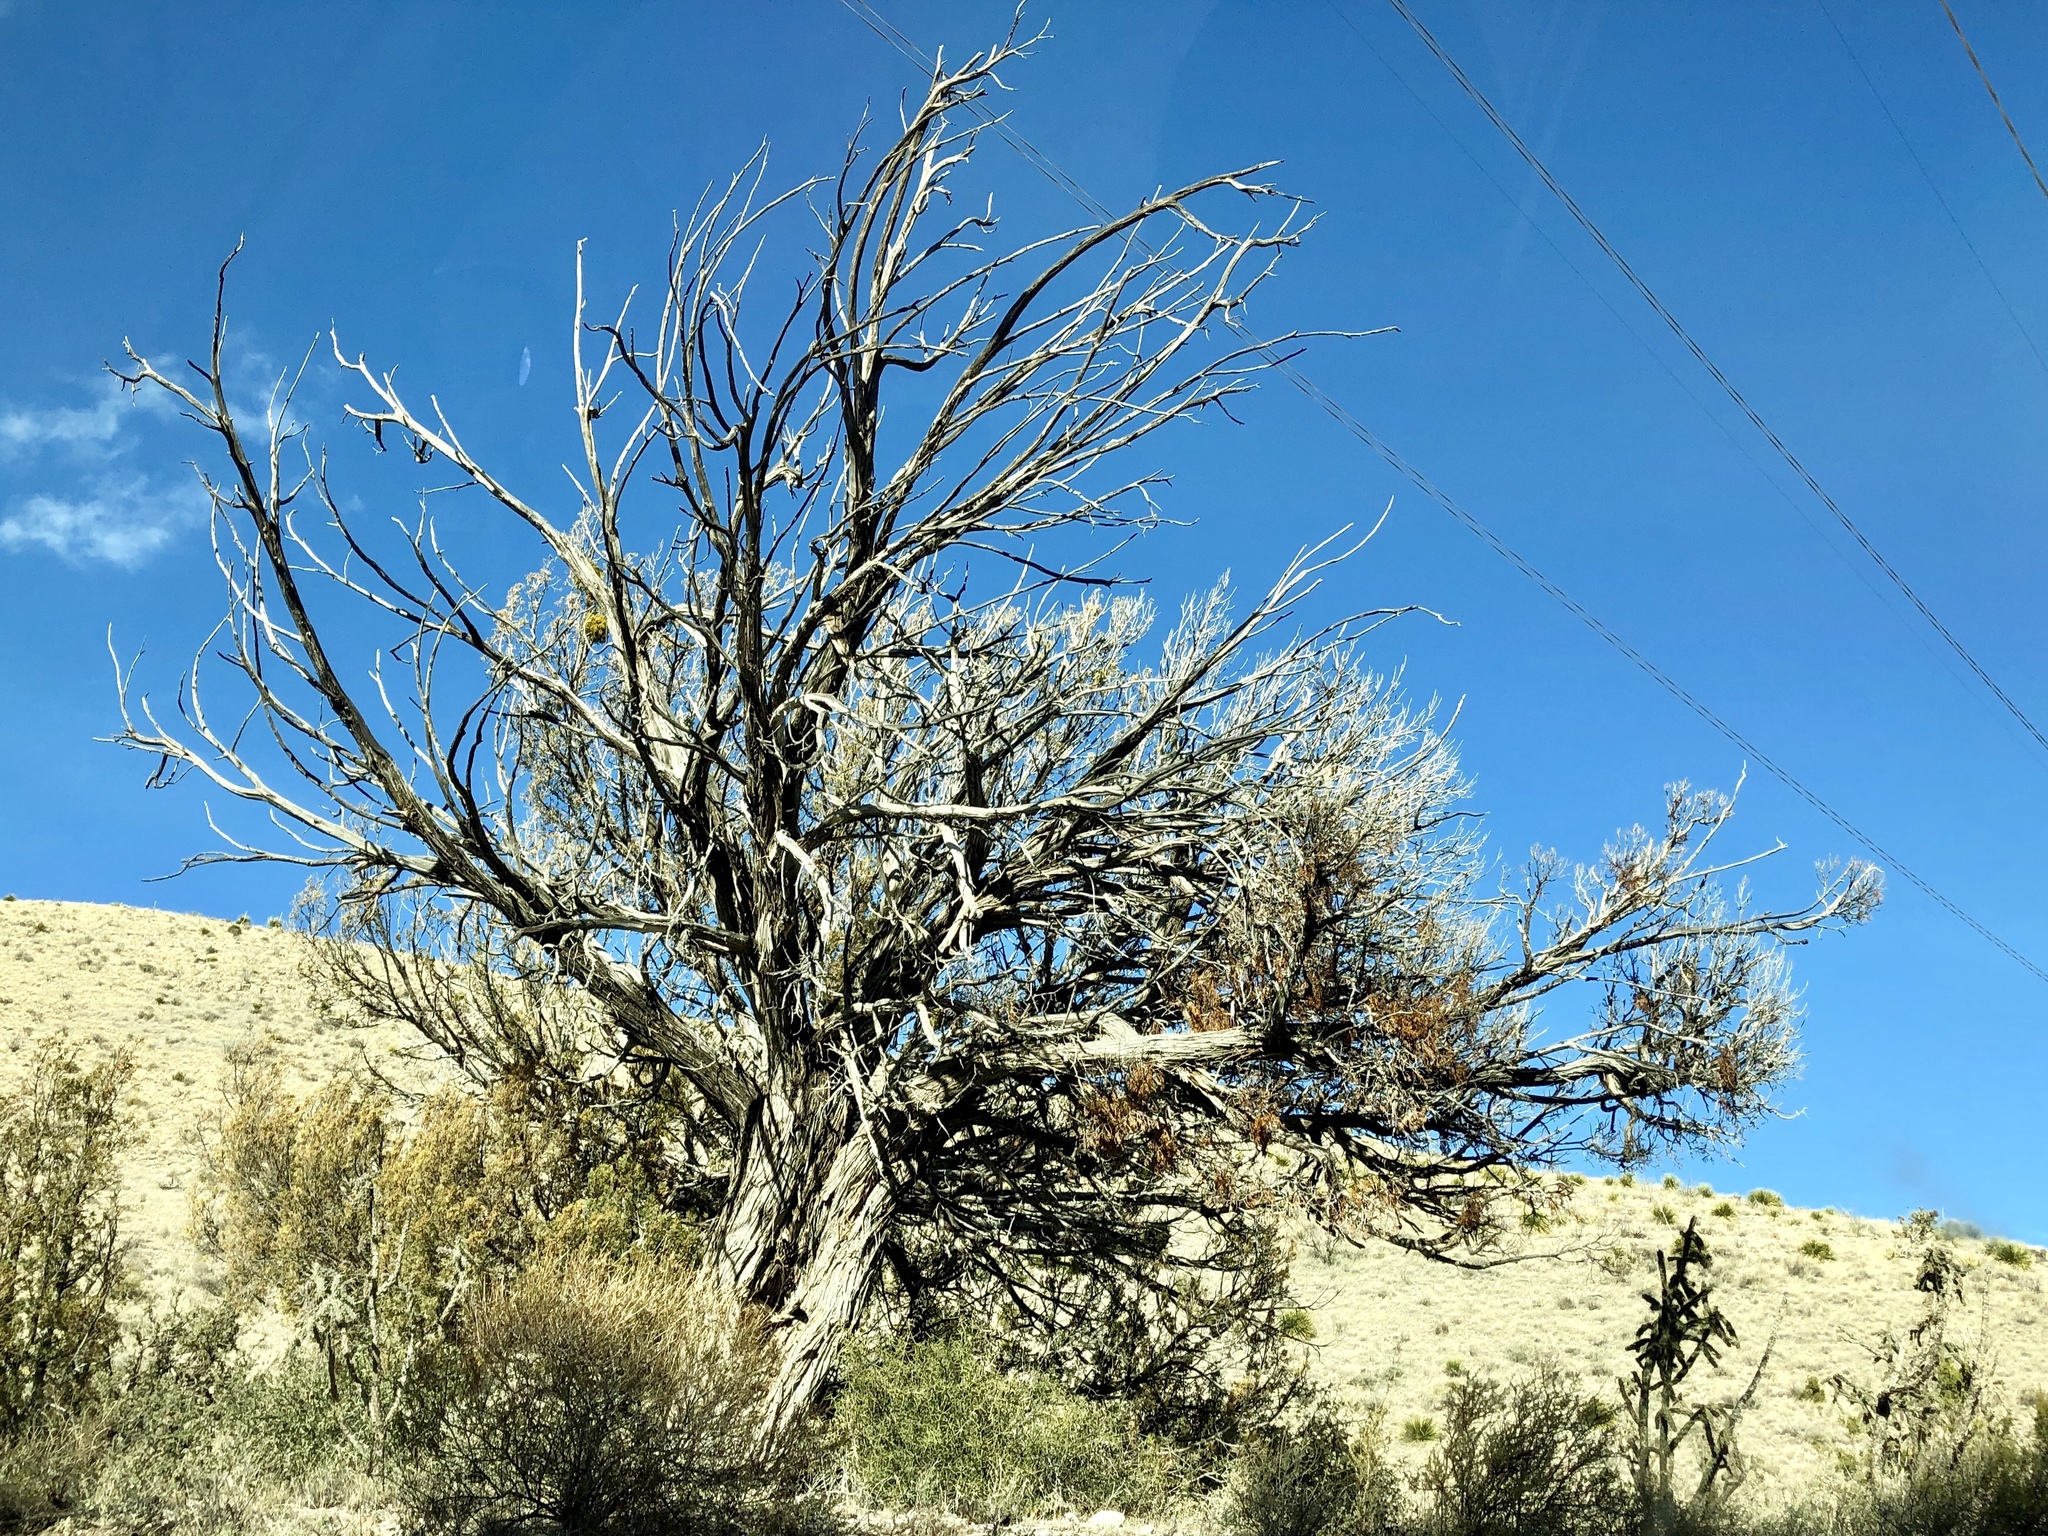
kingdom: Plantae
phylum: Tracheophyta
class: Pinopsida
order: Pinales
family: Cupressaceae
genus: Juniperus
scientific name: Juniperus monosperma
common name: One-seed juniper
